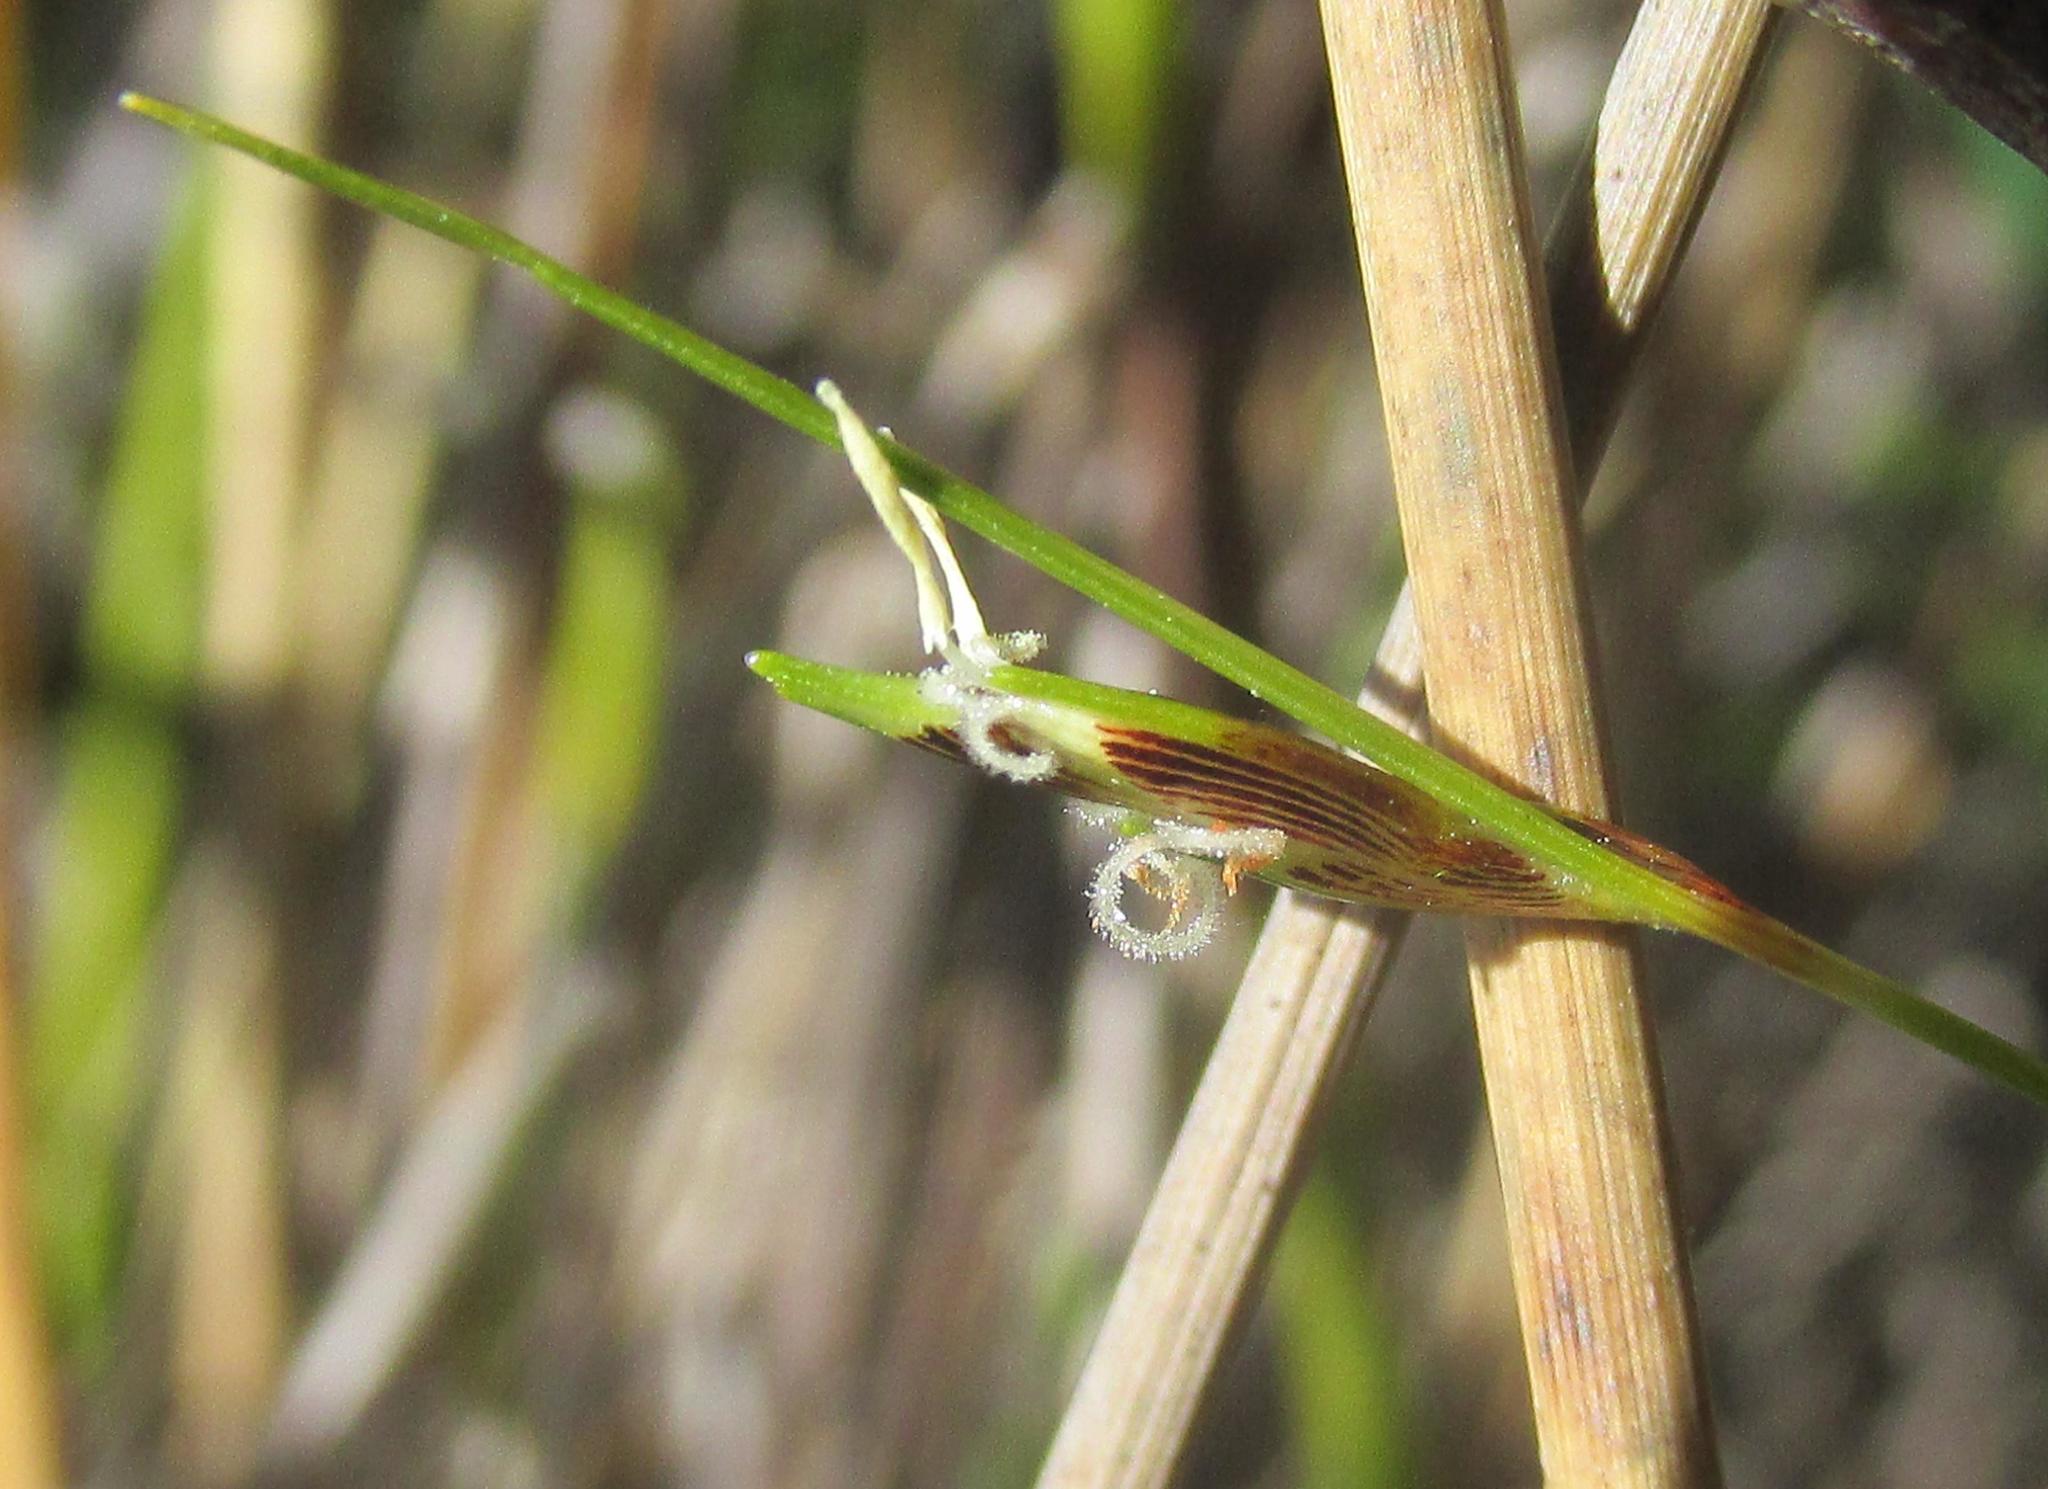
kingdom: Plantae
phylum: Tracheophyta
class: Liliopsida
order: Poales
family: Cyperaceae
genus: Ficinia
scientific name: Ficinia capillifolia
